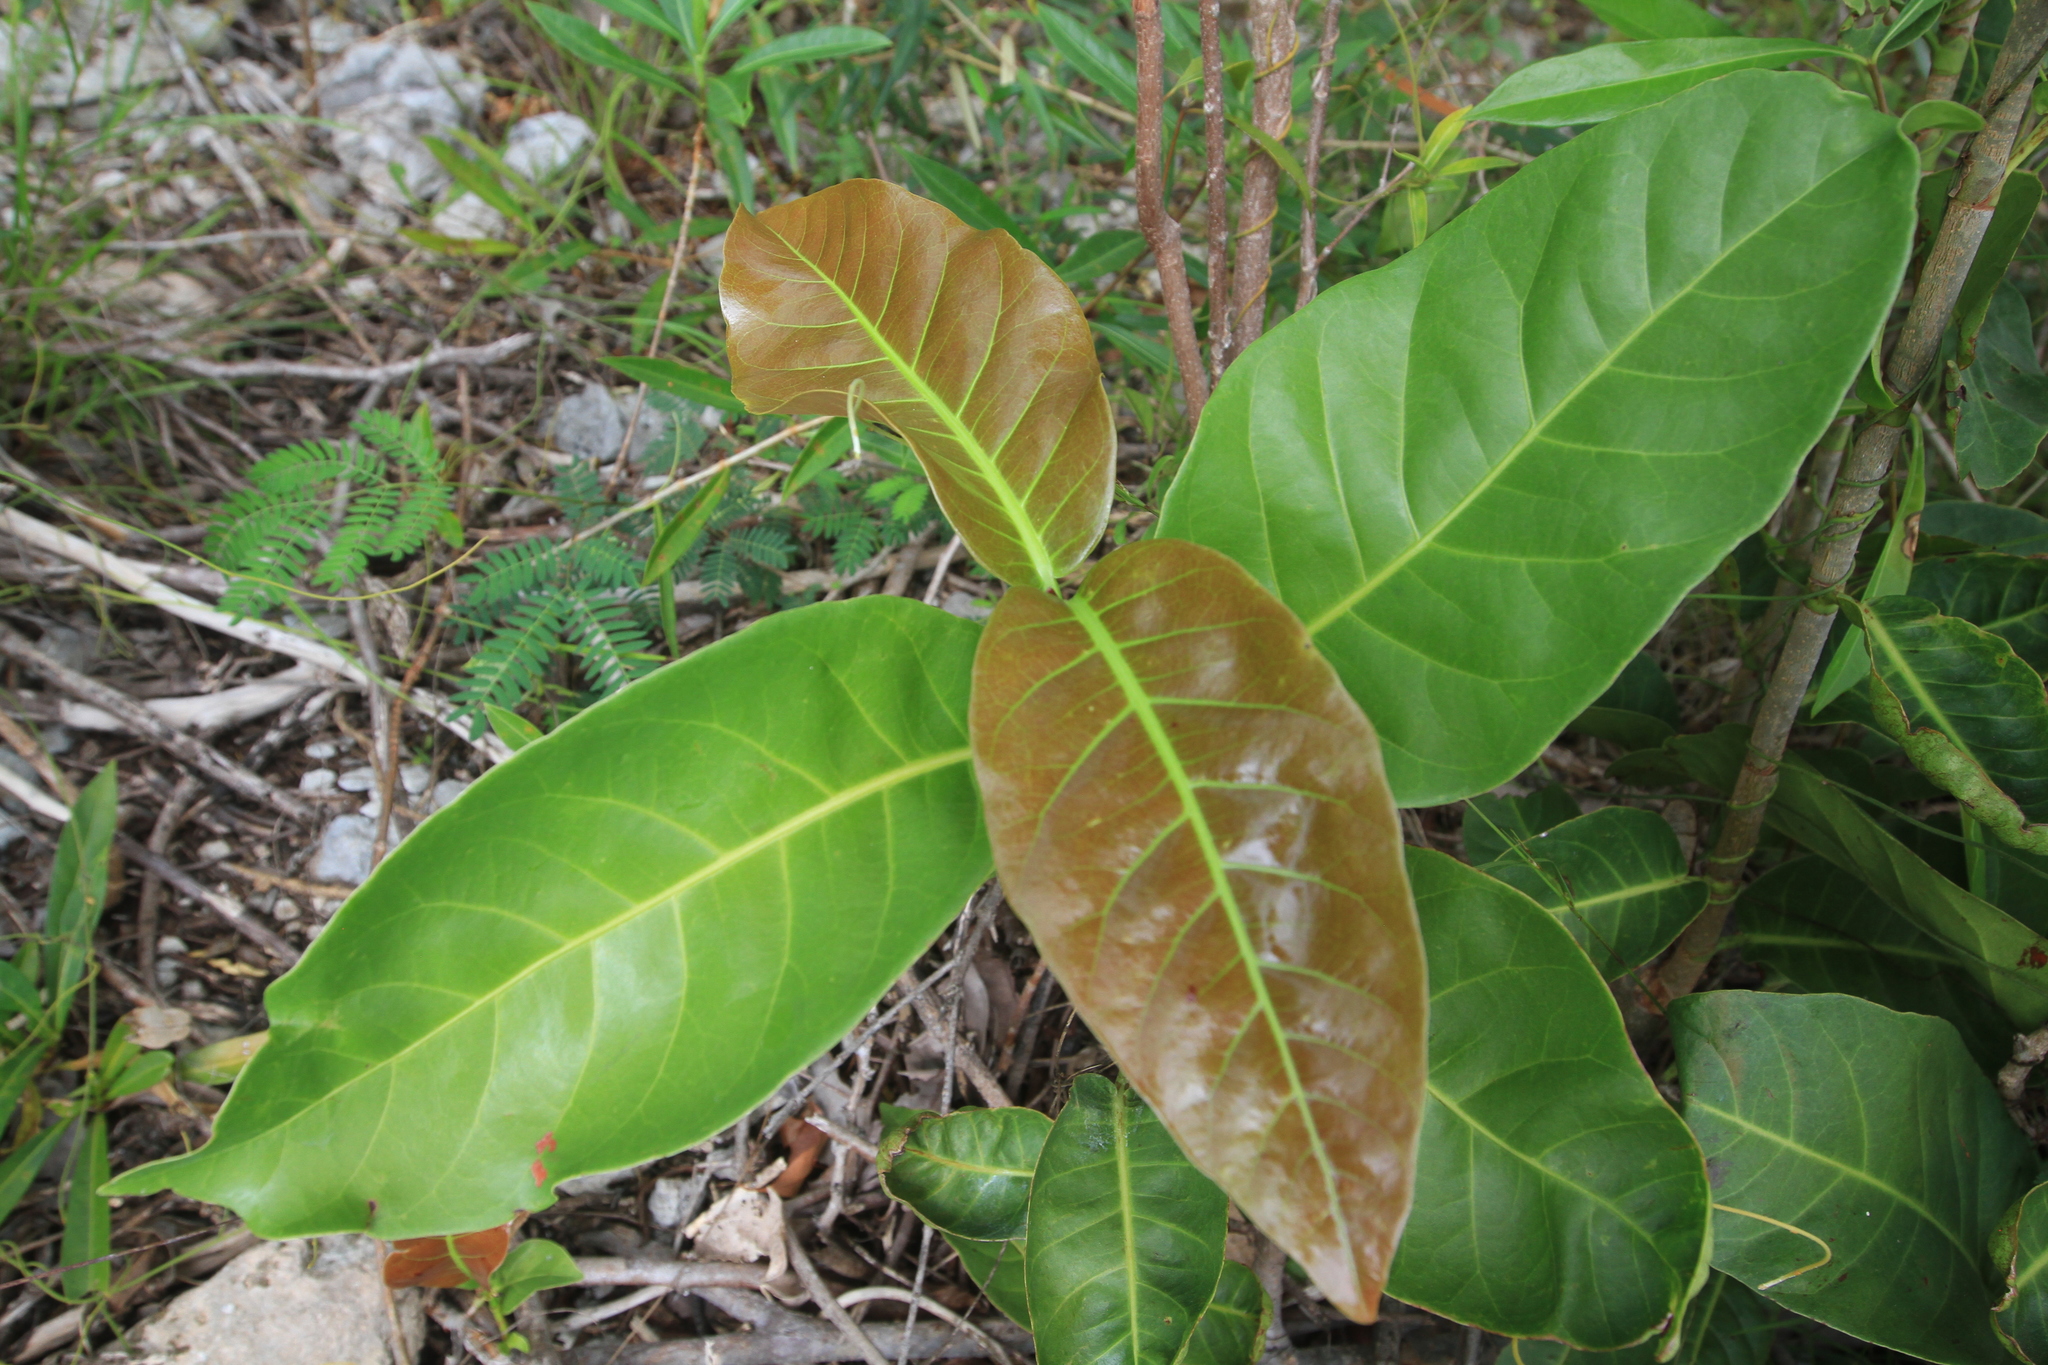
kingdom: Plantae
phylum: Tracheophyta
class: Magnoliopsida
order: Caryophyllales
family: Polygonaceae
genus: Coccoloba
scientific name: Coccoloba diversifolia
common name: Pigeon-plum
